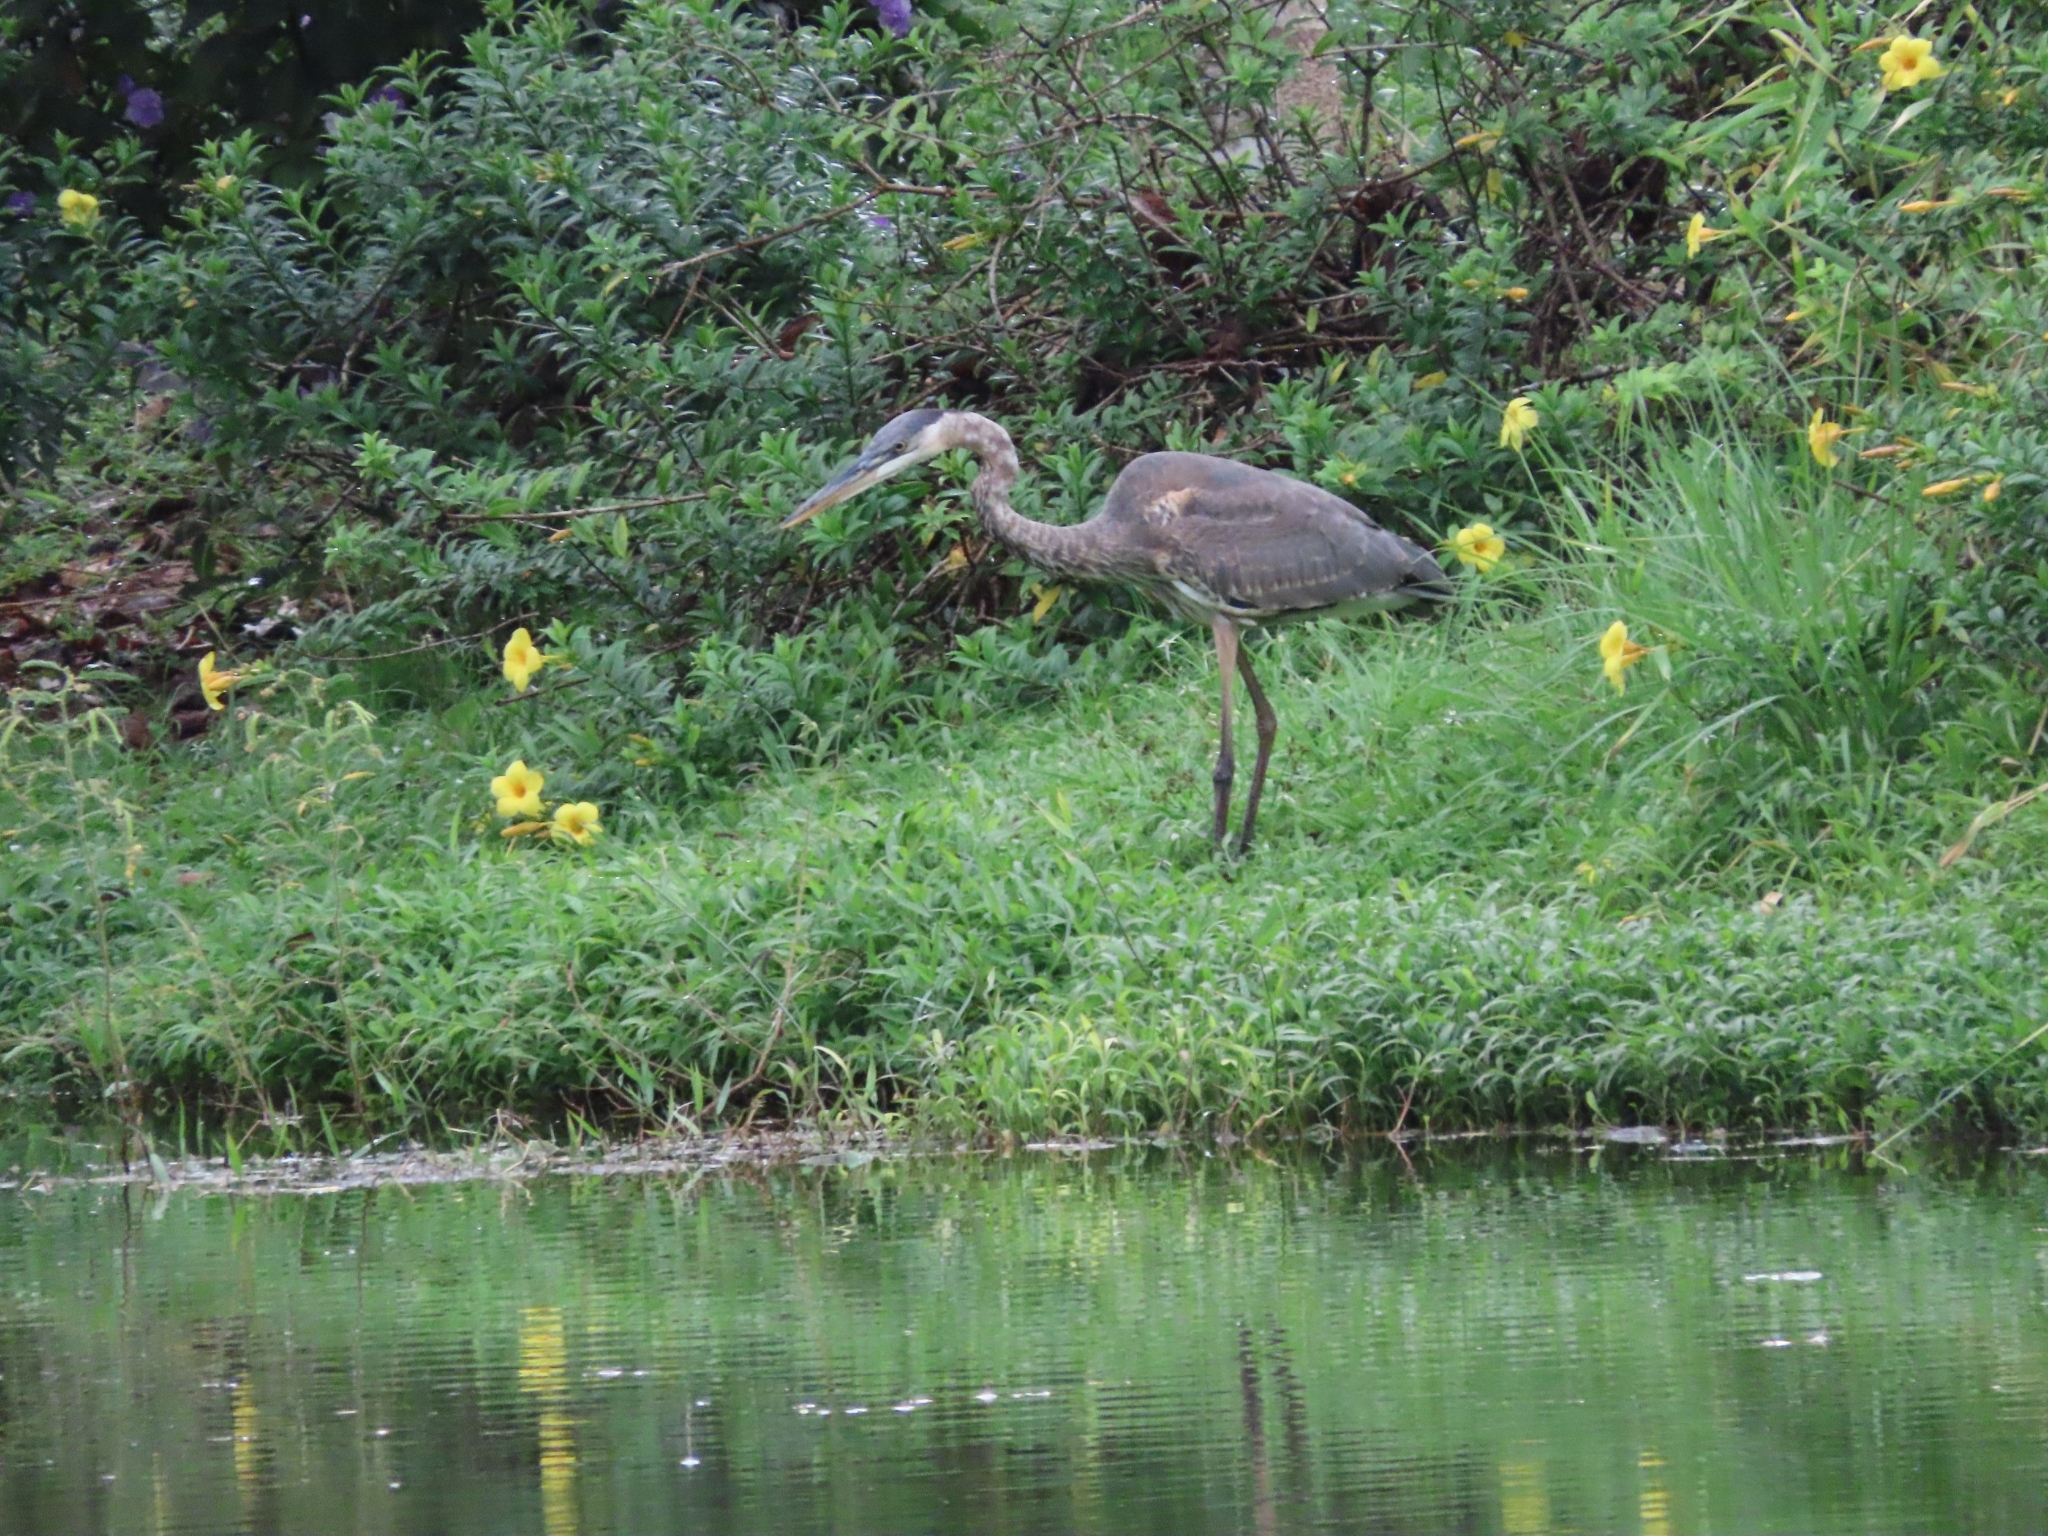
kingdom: Animalia
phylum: Chordata
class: Aves
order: Pelecaniformes
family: Ardeidae
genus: Ardea
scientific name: Ardea herodias
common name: Great blue heron
